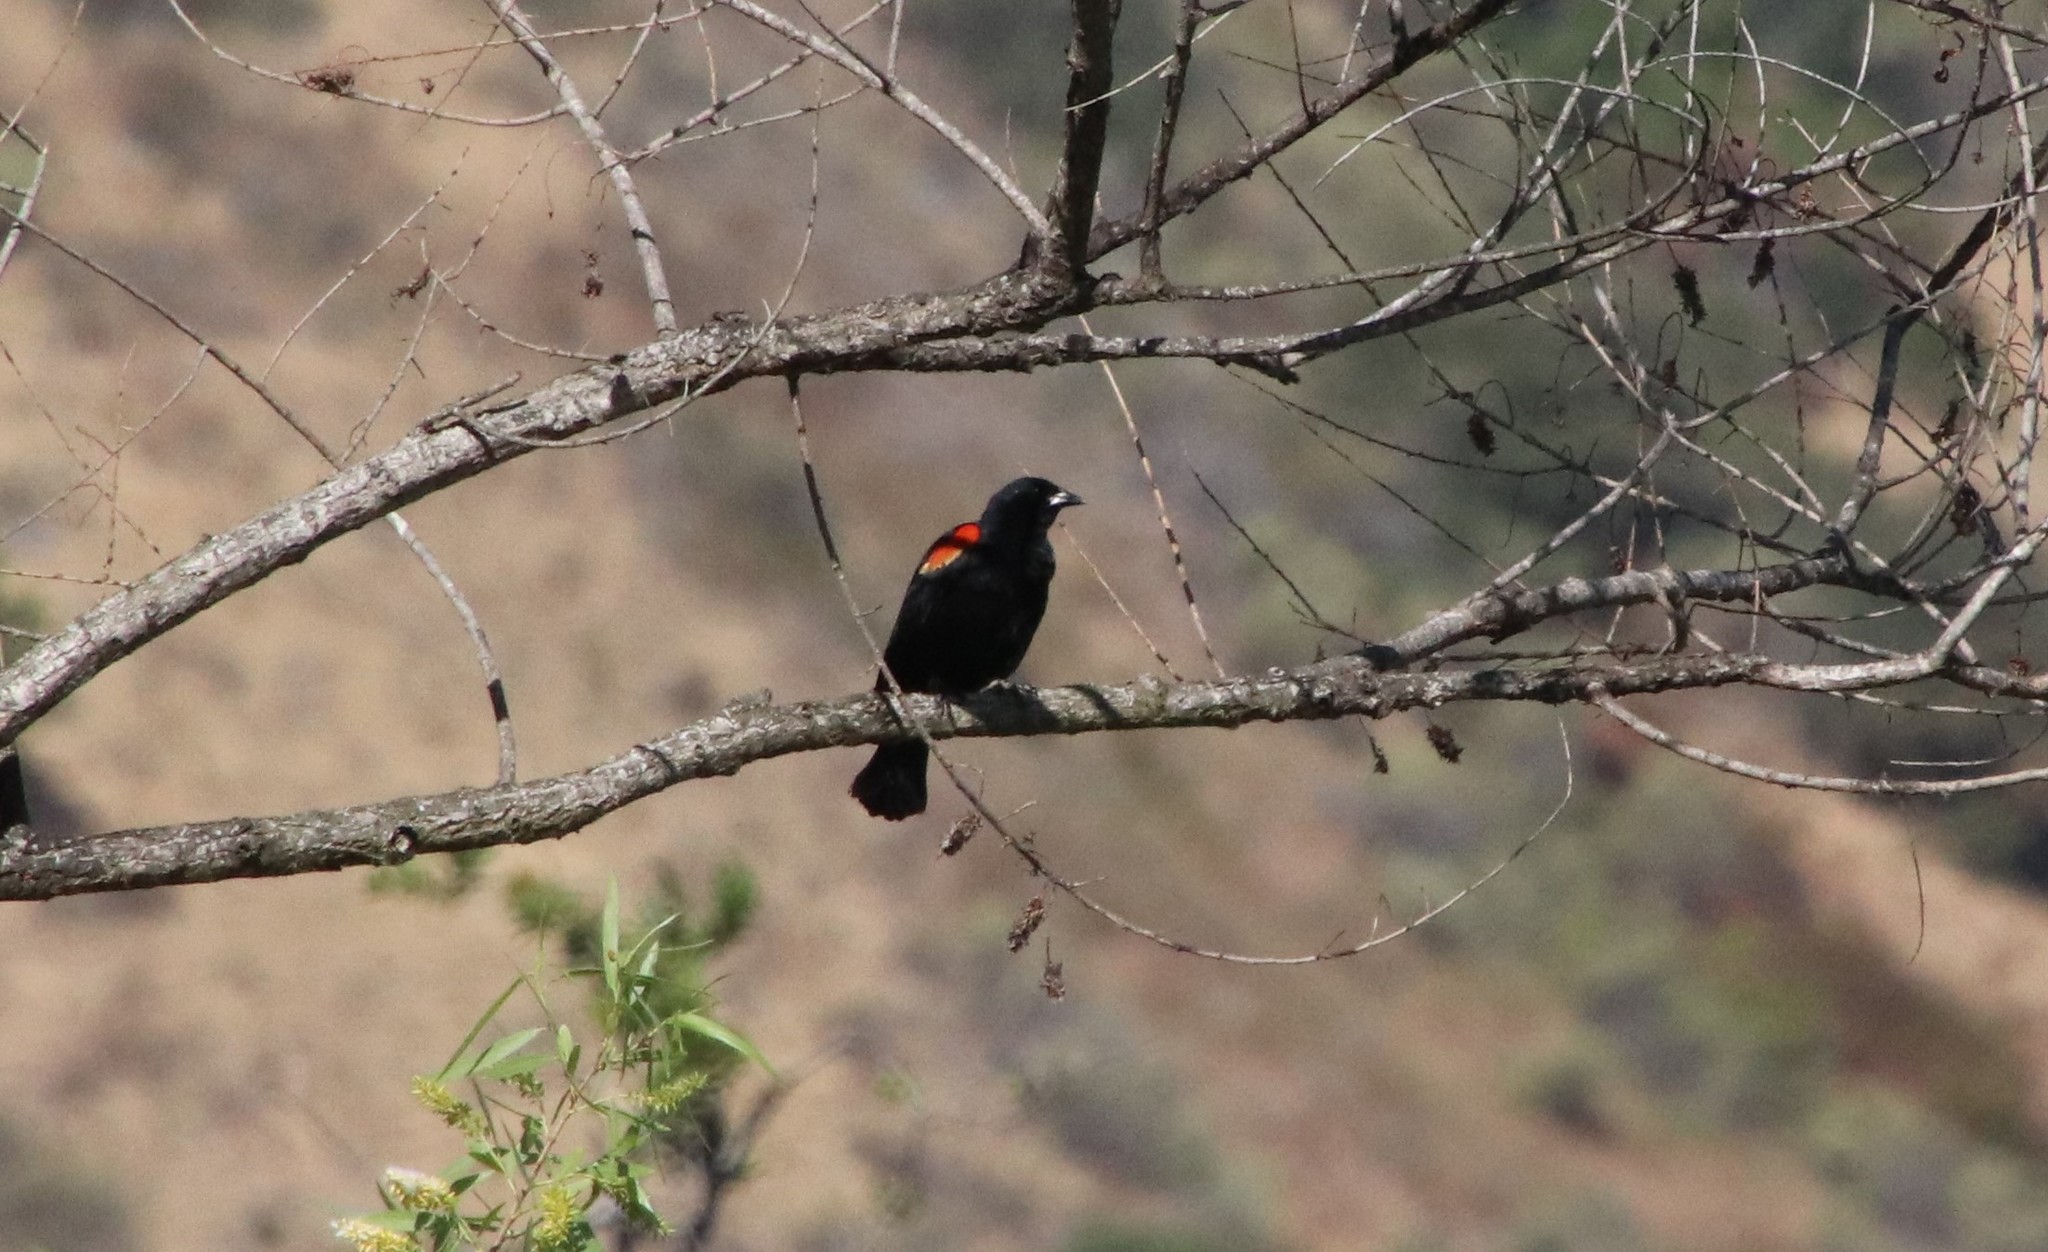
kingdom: Animalia
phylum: Chordata
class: Aves
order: Passeriformes
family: Icteridae
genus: Agelaius
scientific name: Agelaius phoeniceus
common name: Red-winged blackbird
